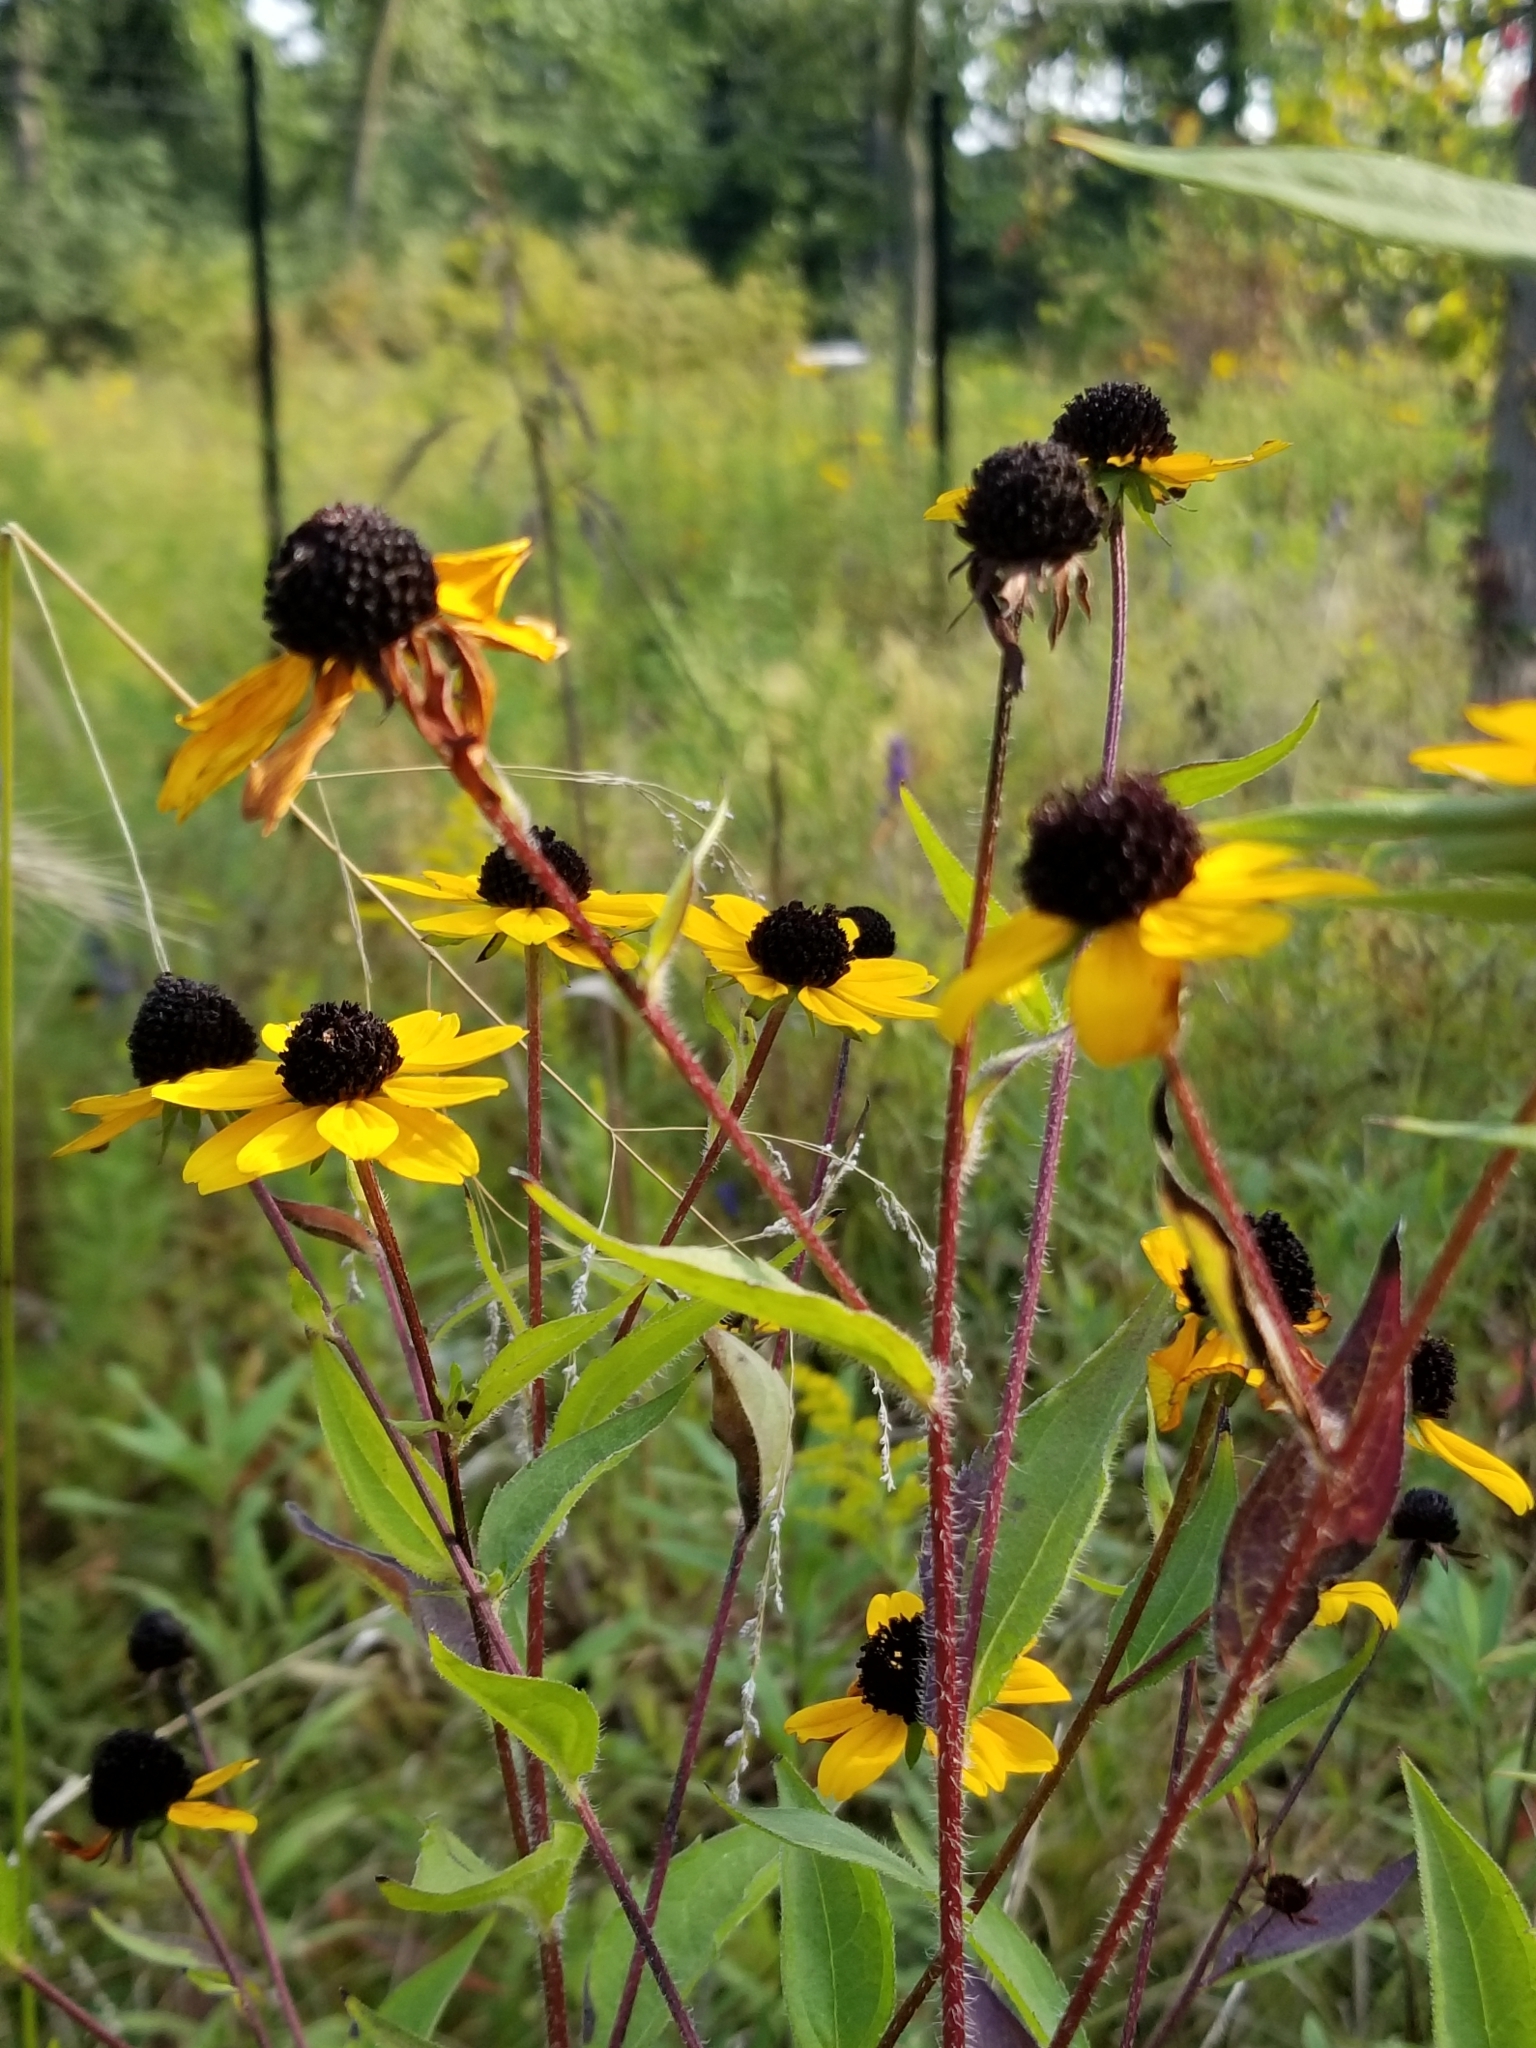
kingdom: Plantae
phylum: Tracheophyta
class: Magnoliopsida
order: Asterales
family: Asteraceae
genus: Rudbeckia
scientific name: Rudbeckia triloba
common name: Thin-leaved coneflower
